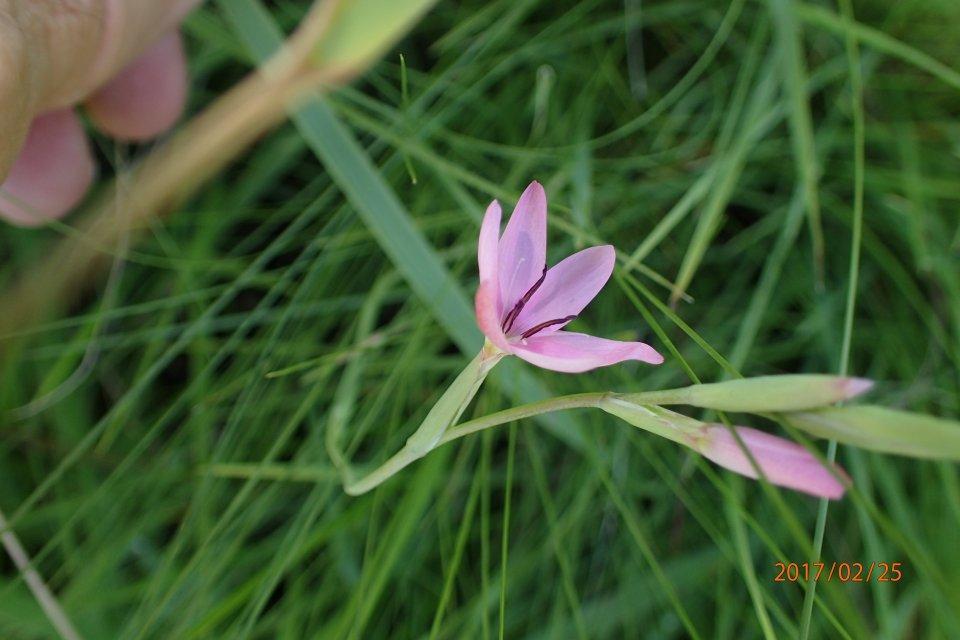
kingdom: Plantae
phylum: Tracheophyta
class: Liliopsida
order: Asparagales
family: Iridaceae
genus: Hesperantha
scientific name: Hesperantha baurii
